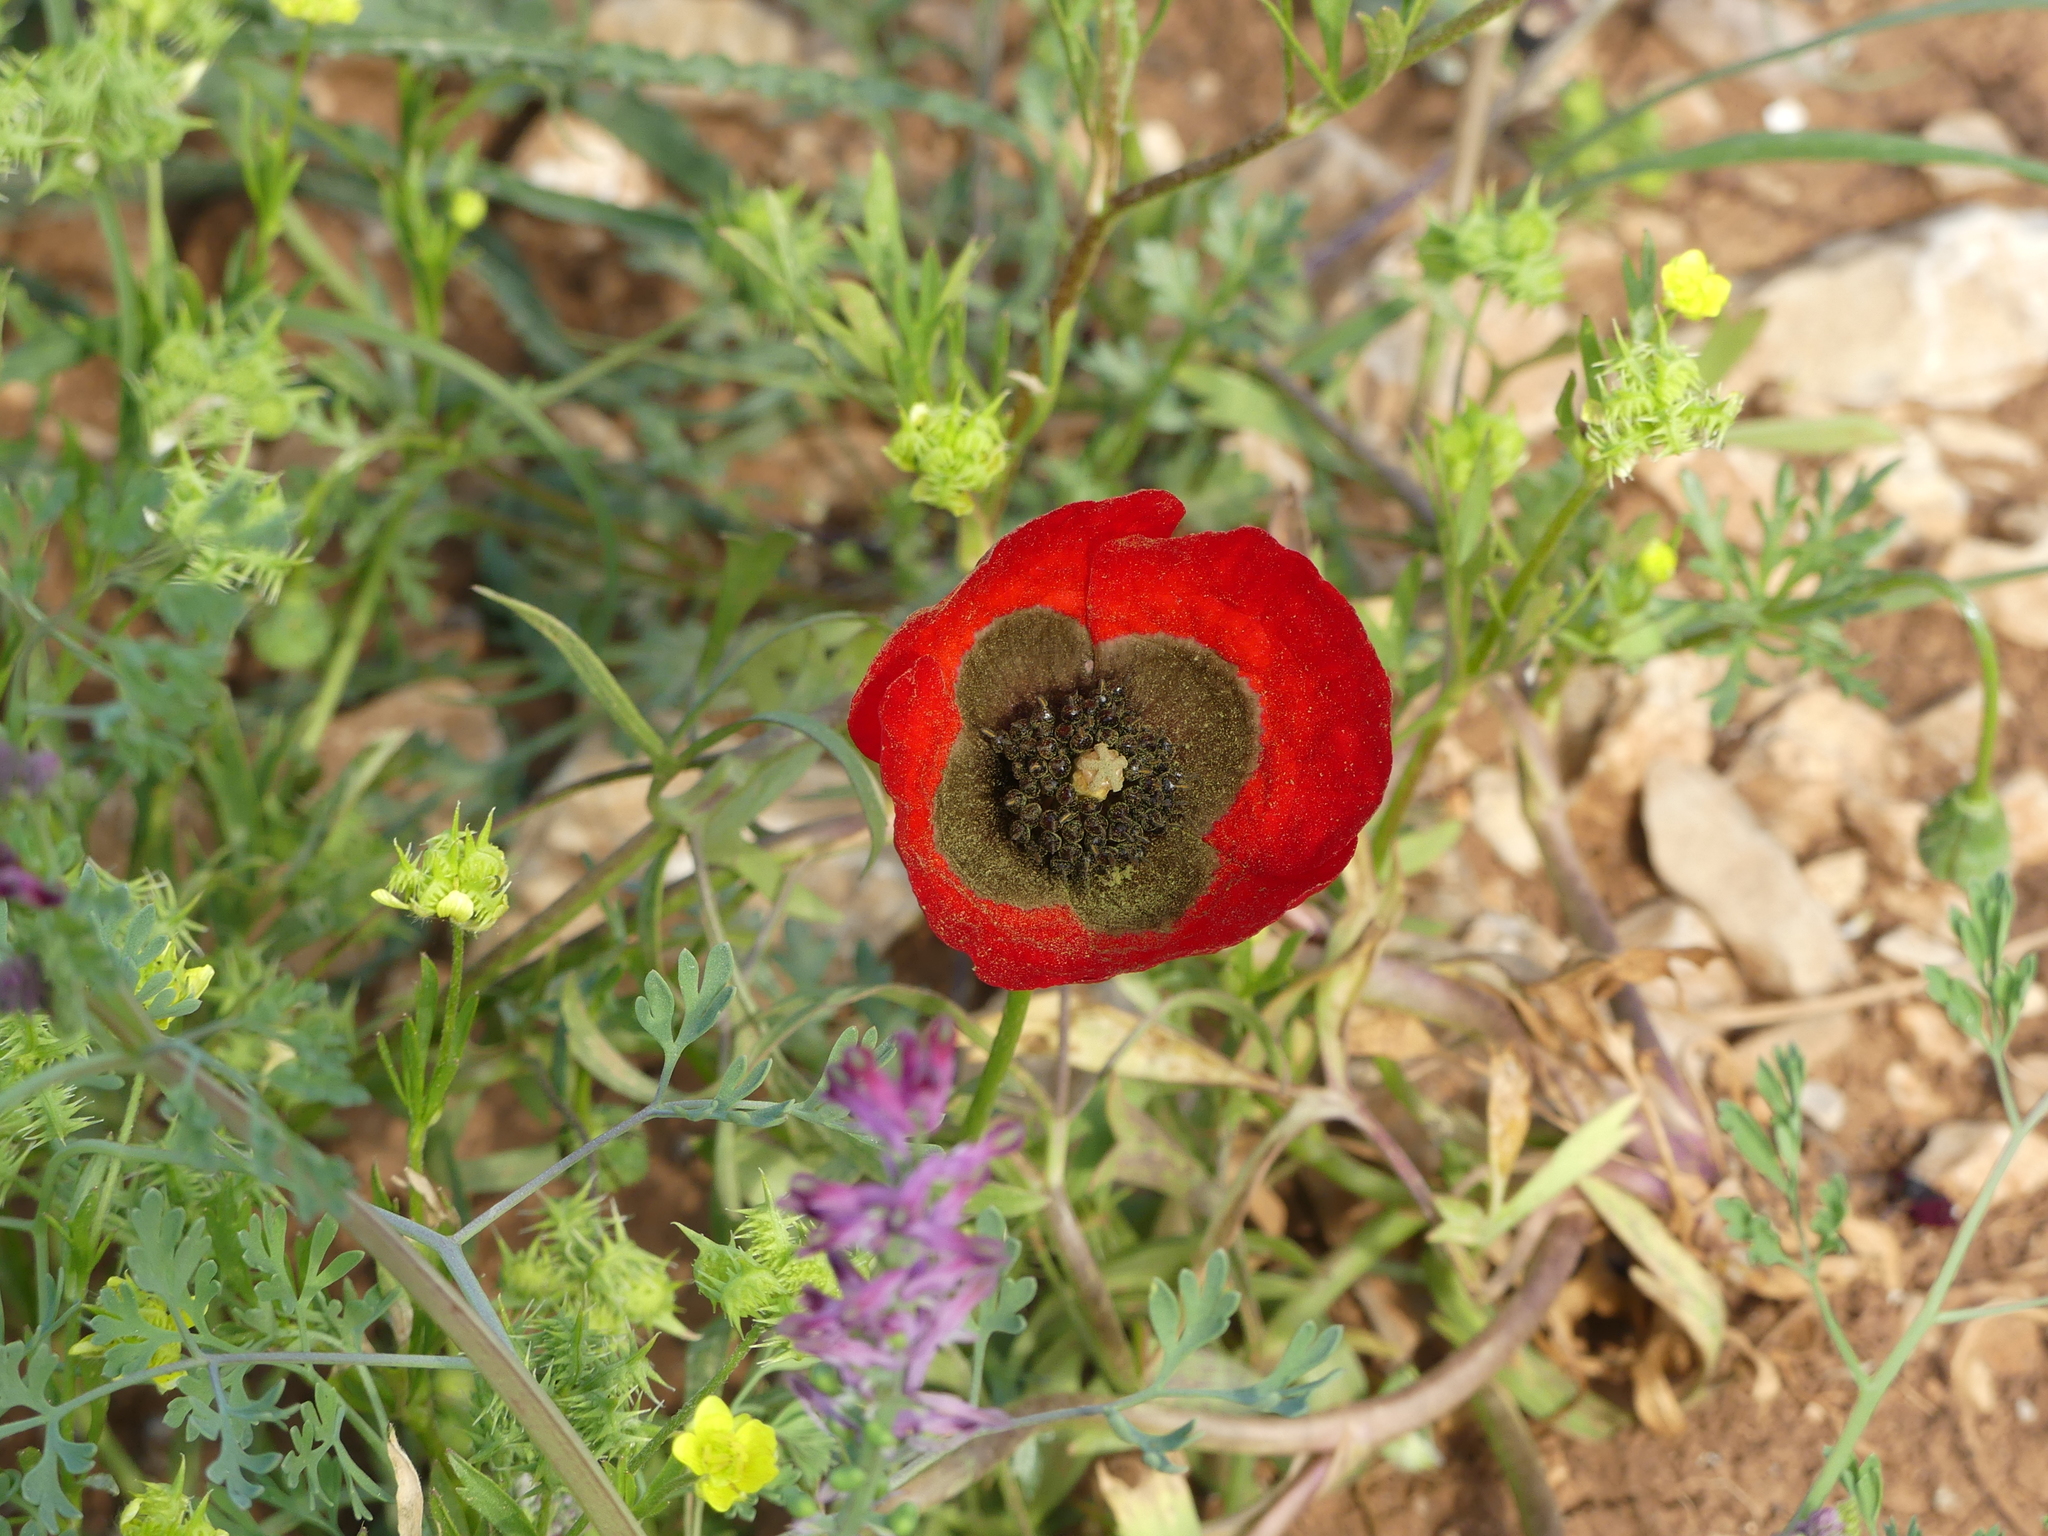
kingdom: Plantae
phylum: Tracheophyta
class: Magnoliopsida
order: Ranunculales
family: Papaveraceae
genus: Papaver
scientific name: Papaver rhoeas
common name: Corn poppy
